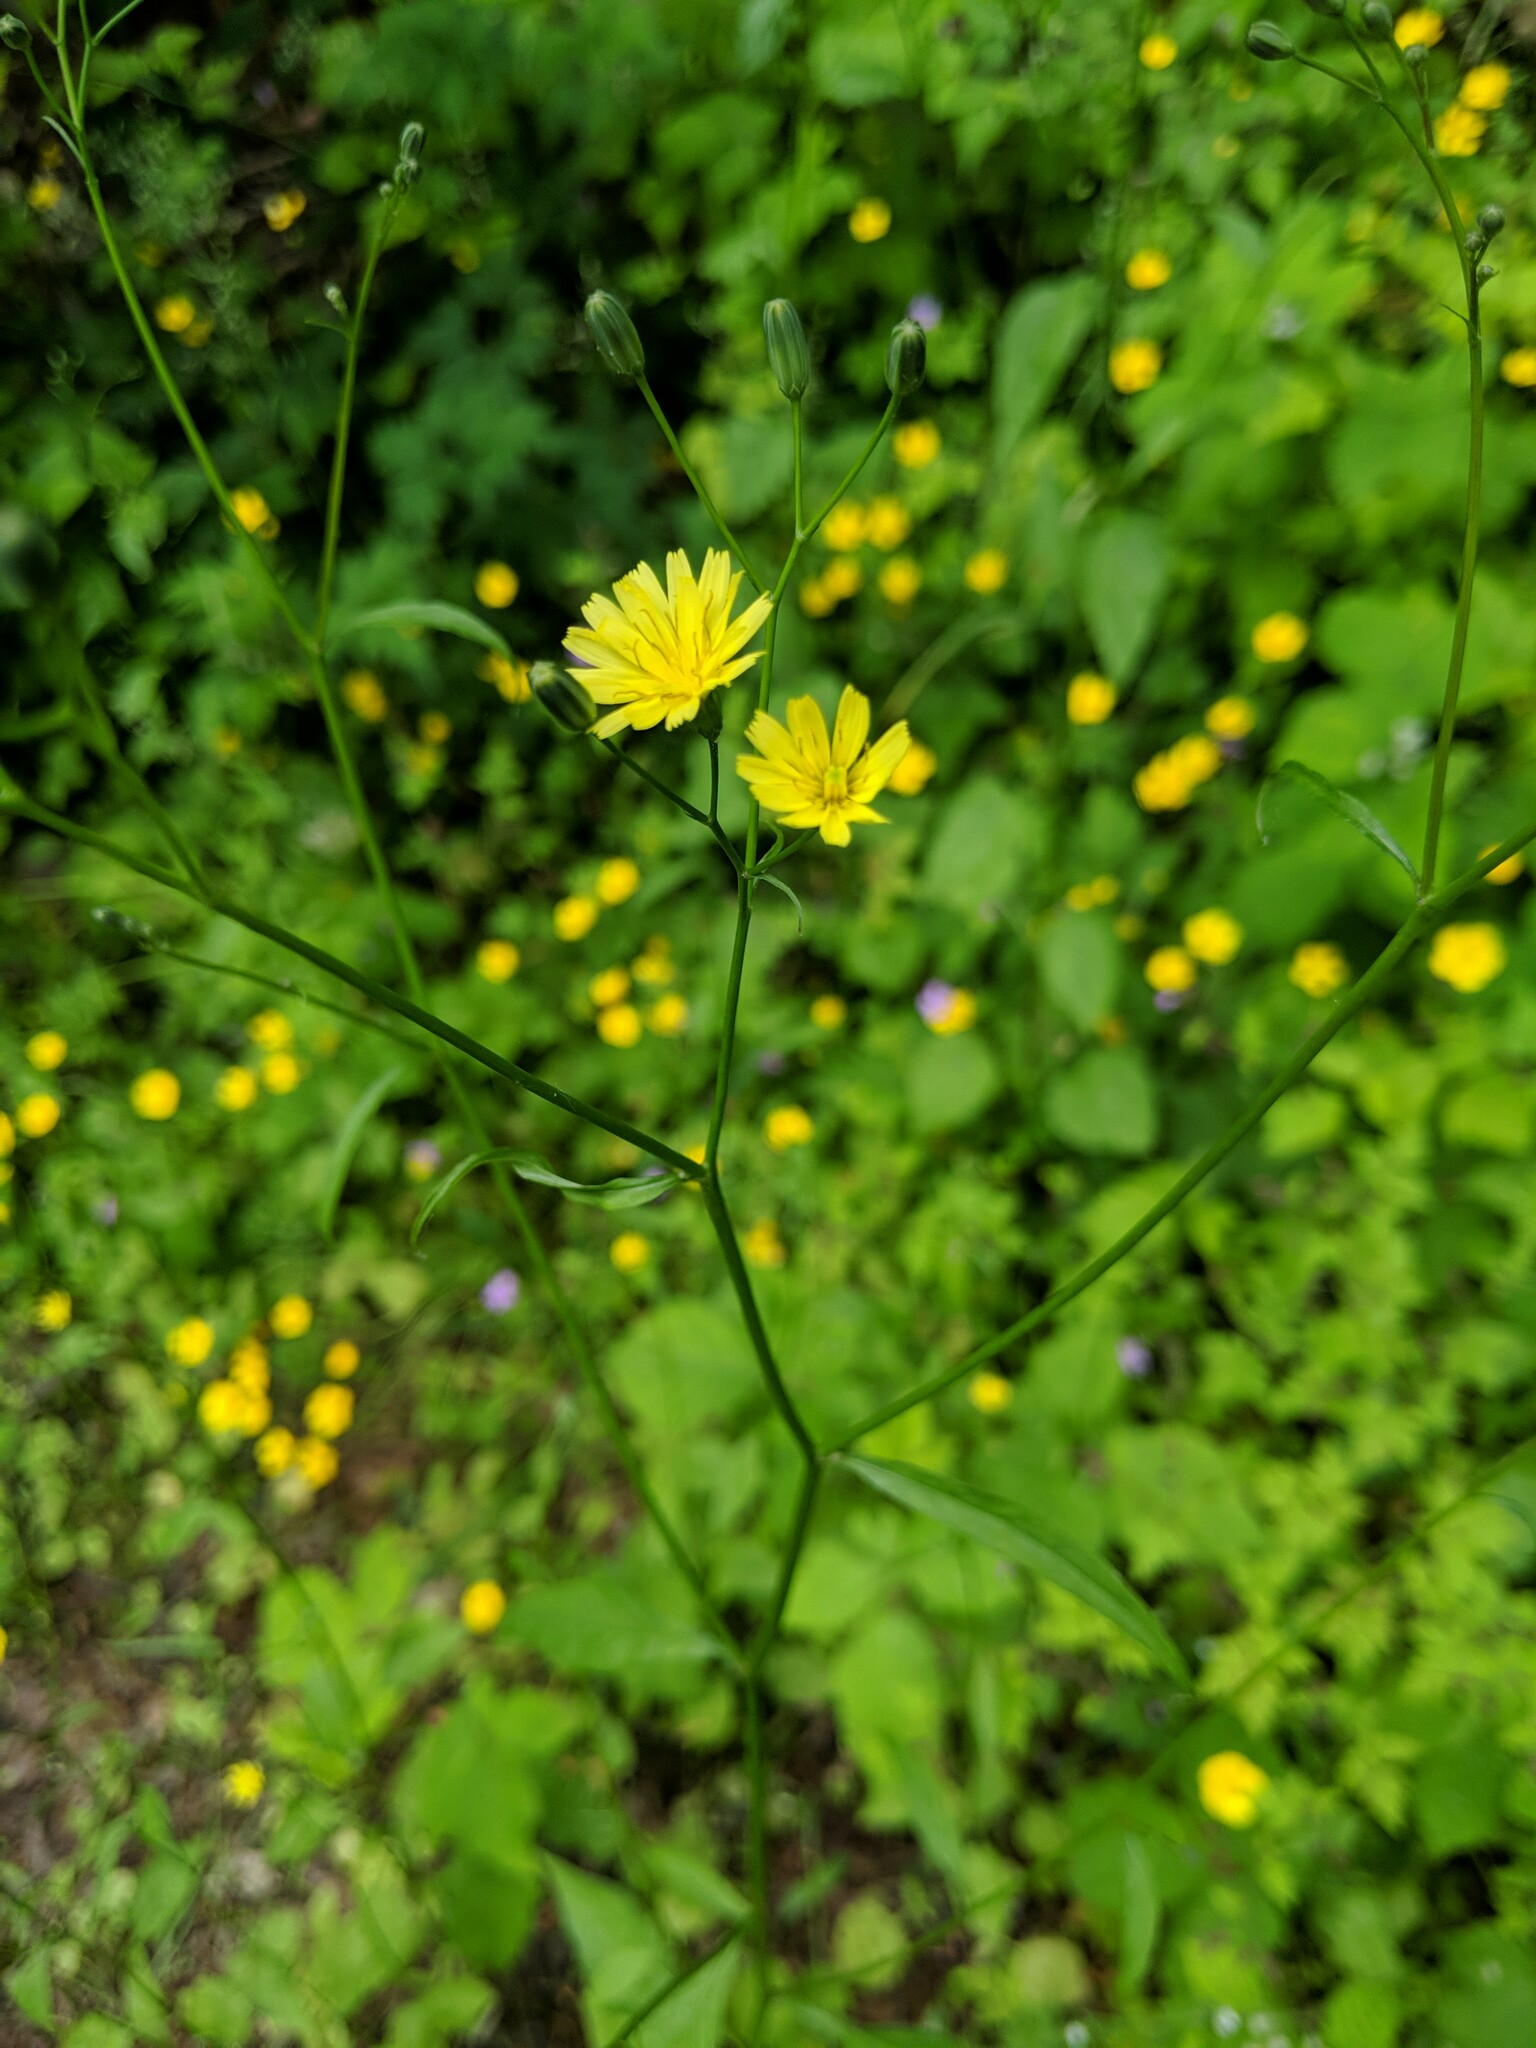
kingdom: Plantae
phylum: Tracheophyta
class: Magnoliopsida
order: Asterales
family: Asteraceae
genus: Lapsana
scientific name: Lapsana communis
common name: Nipplewort
